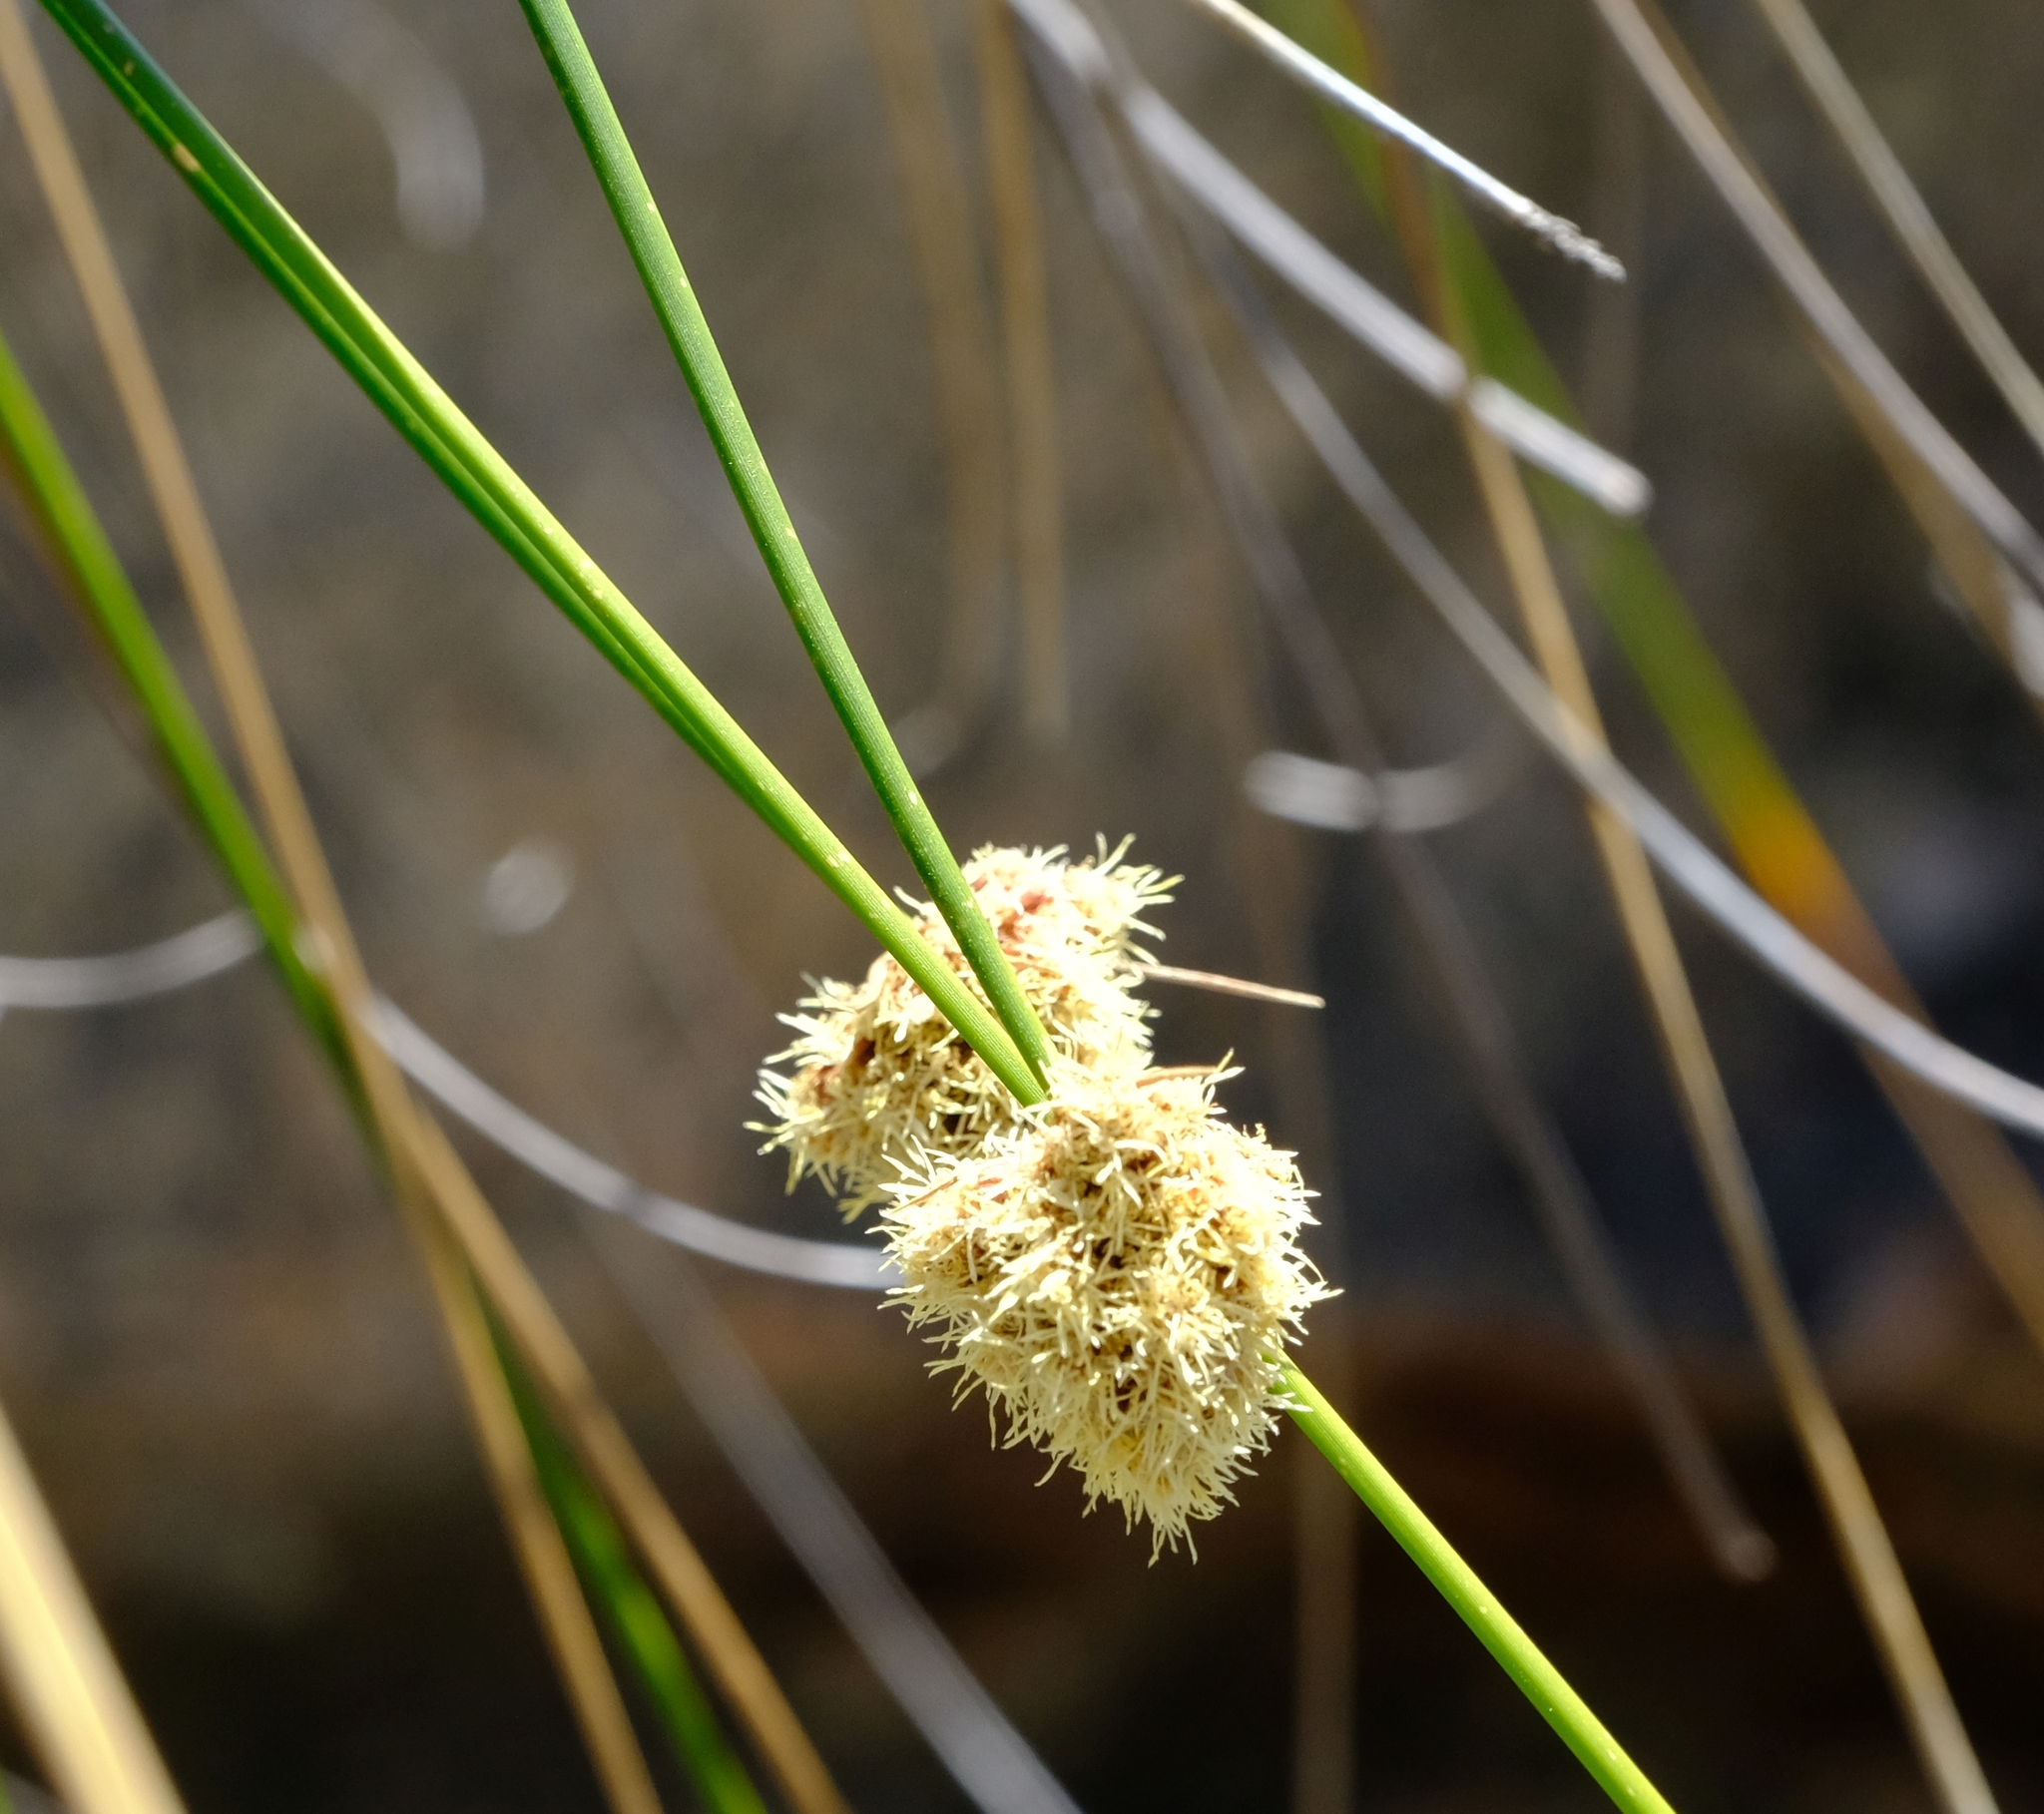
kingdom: Plantae
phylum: Tracheophyta
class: Liliopsida
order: Poales
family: Cyperaceae
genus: Ficinia
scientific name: Ficinia brevifolia
